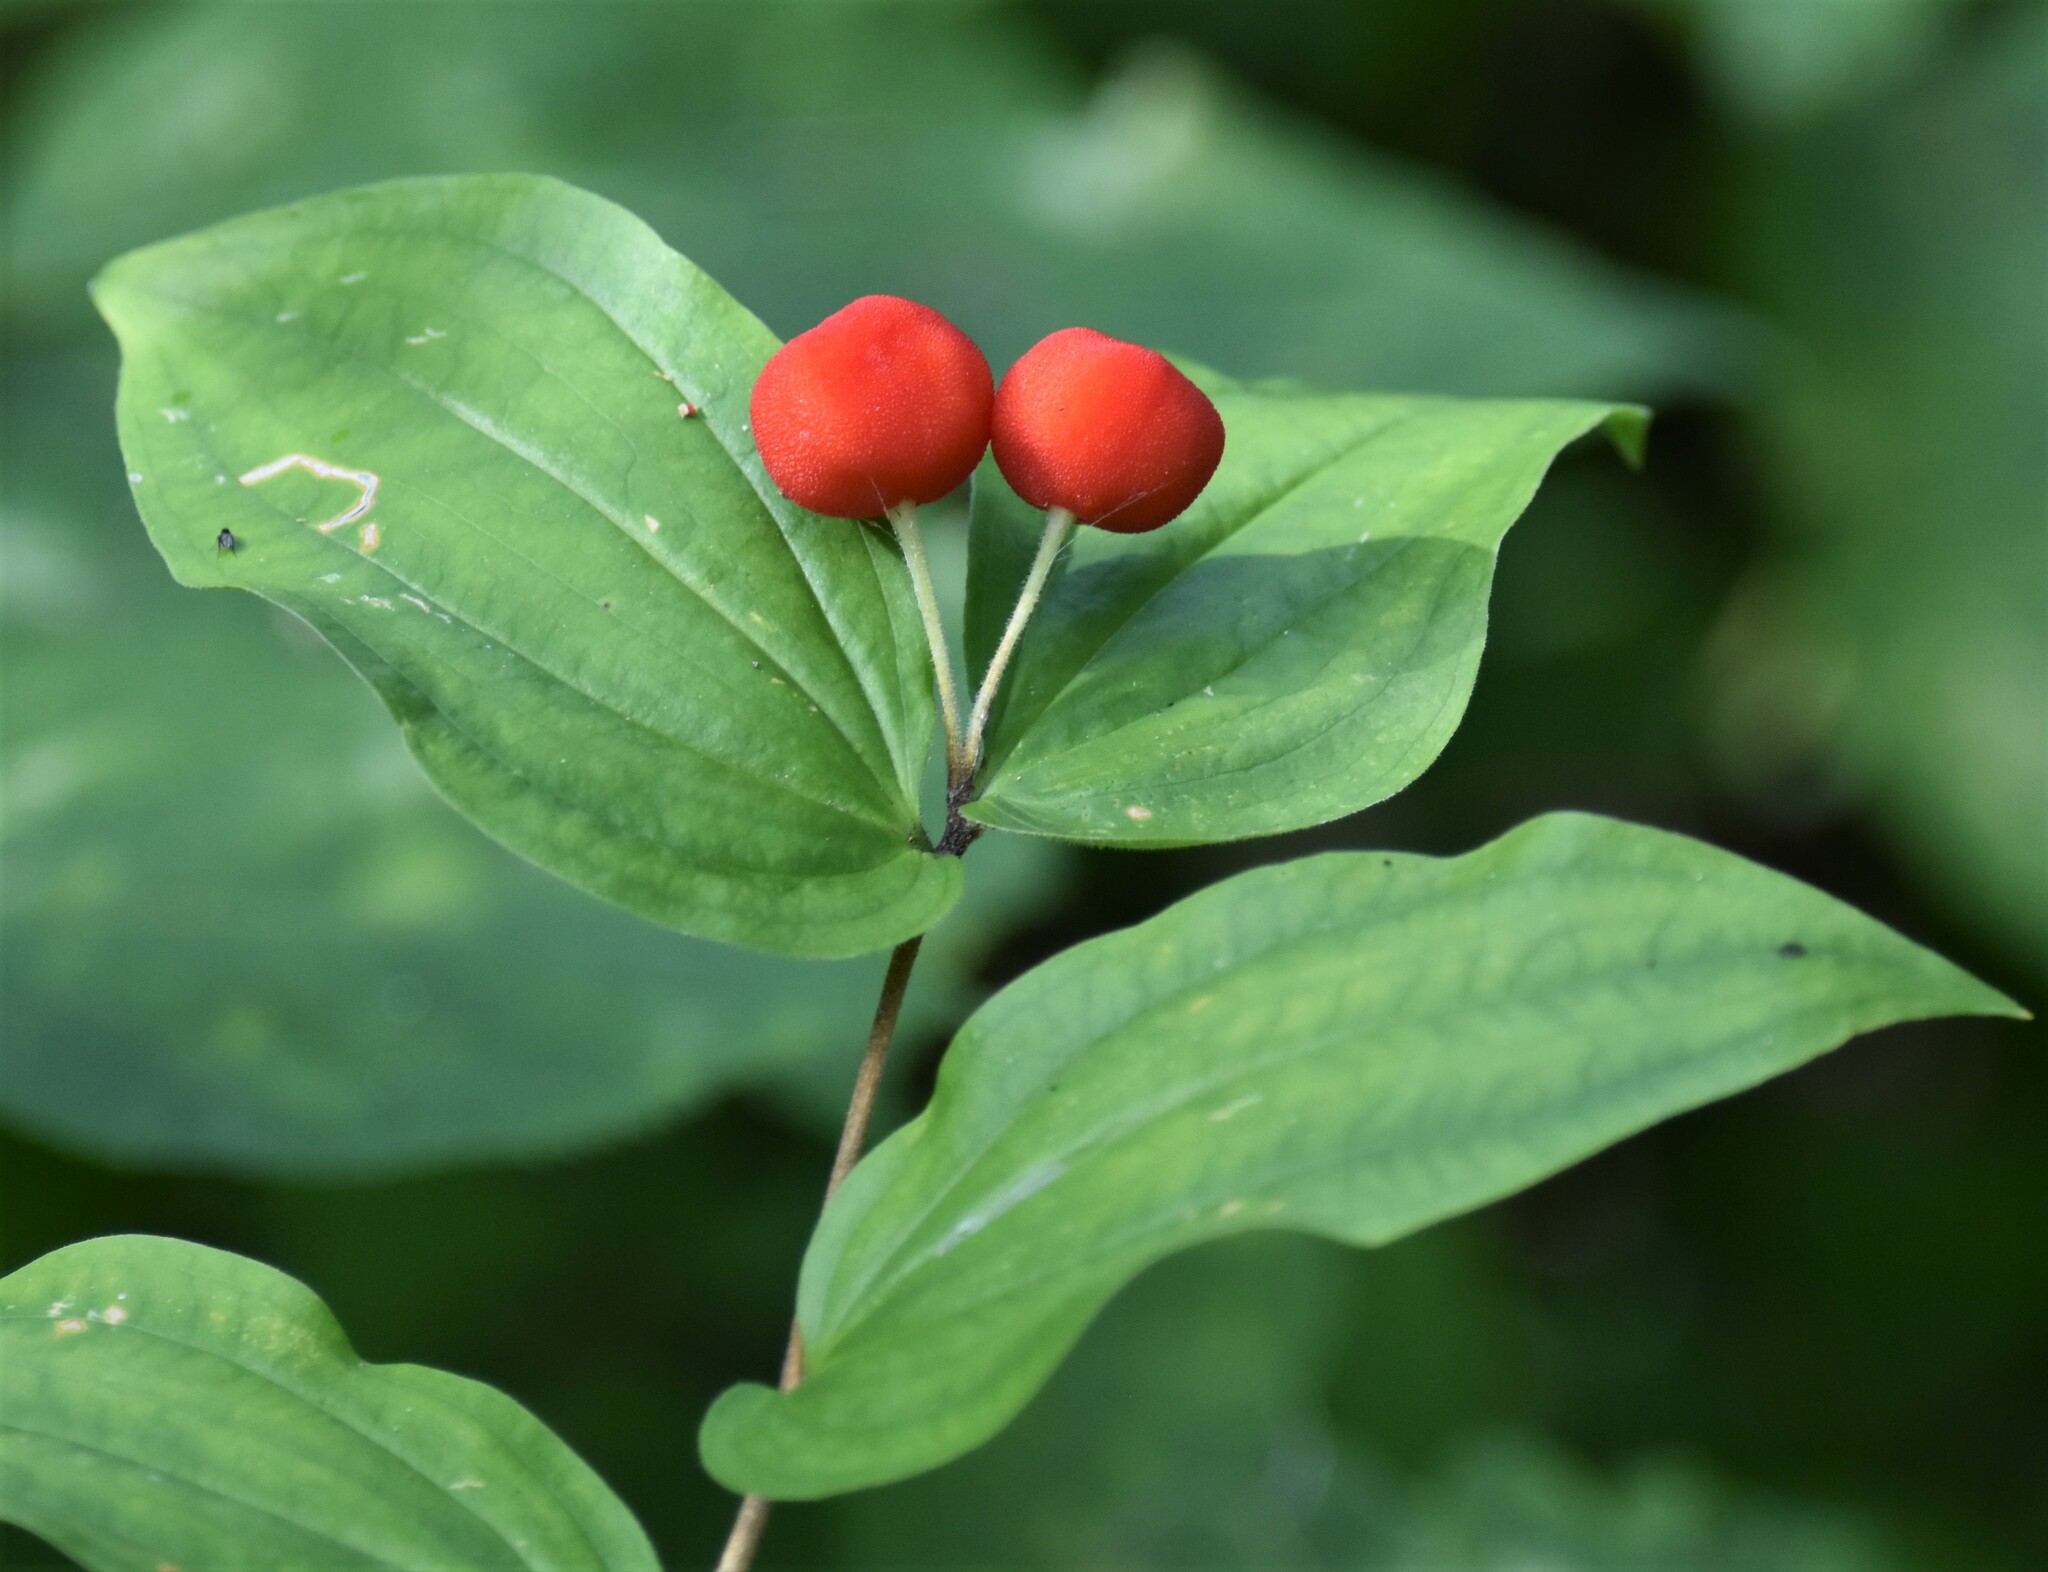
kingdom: Plantae
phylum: Tracheophyta
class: Liliopsida
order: Liliales
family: Liliaceae
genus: Prosartes
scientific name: Prosartes trachycarpa
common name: Rough-fruit fairy-bells
